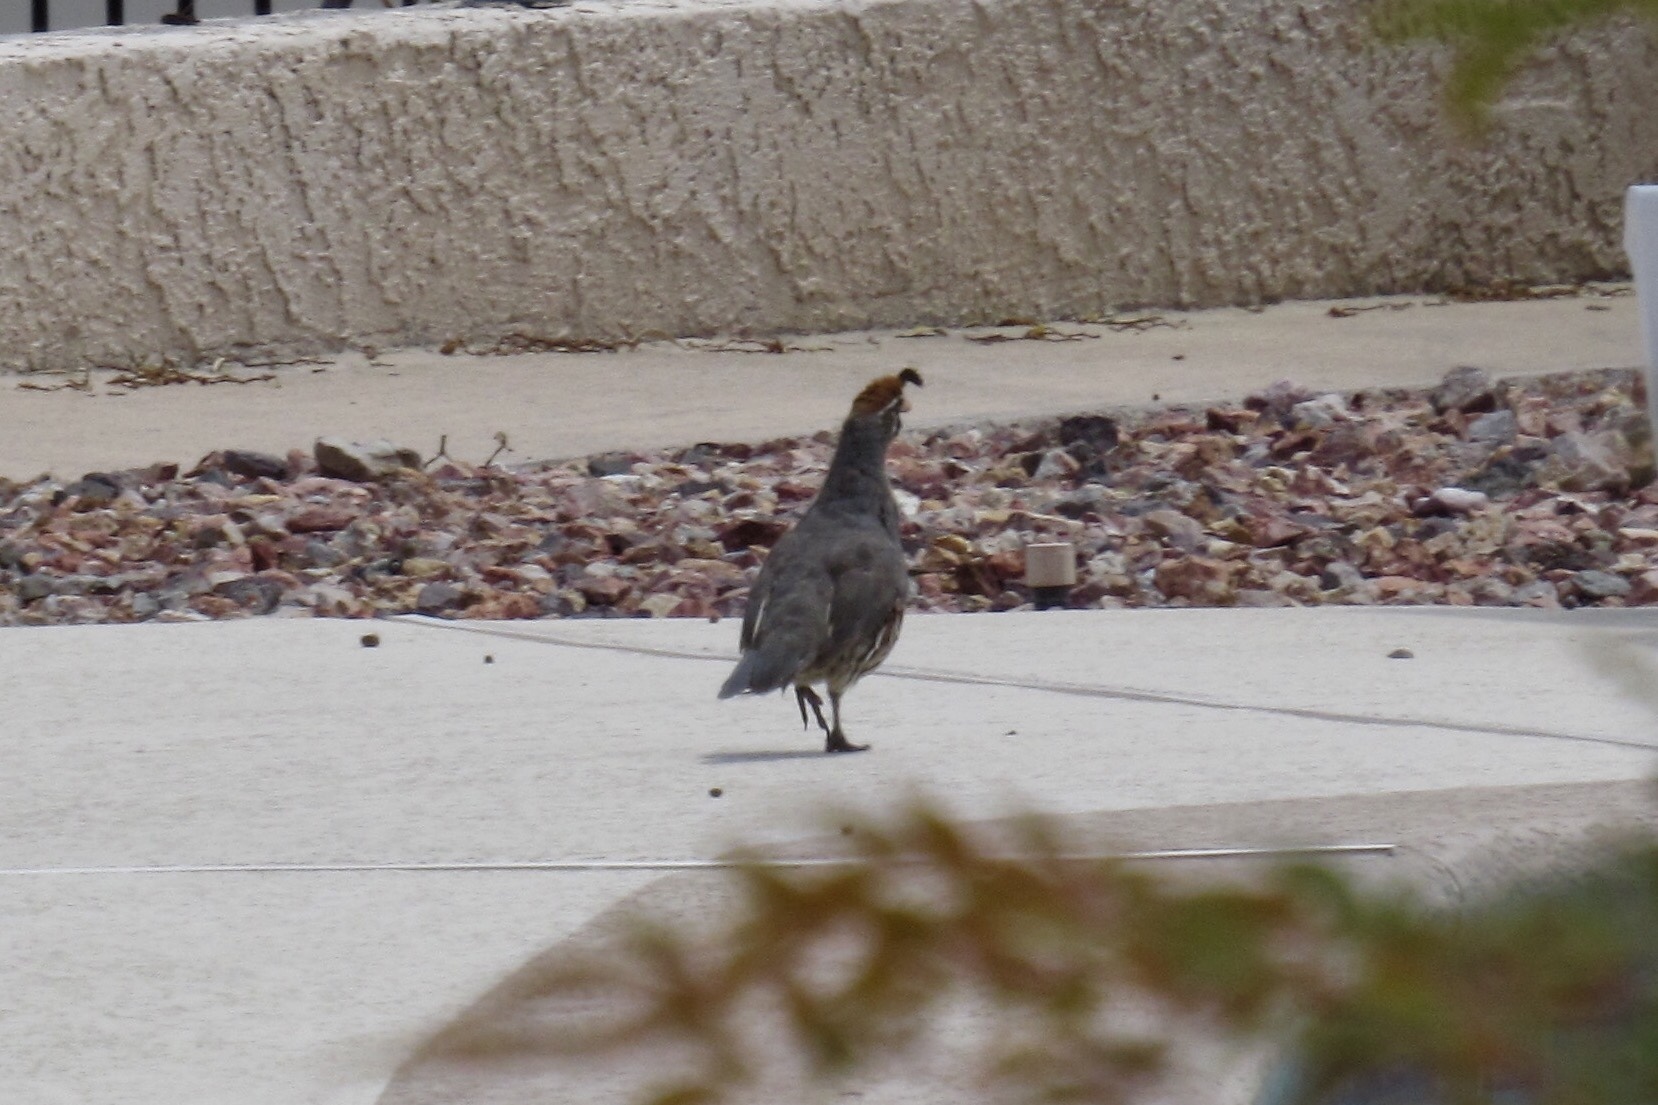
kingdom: Animalia
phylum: Chordata
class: Aves
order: Galliformes
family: Odontophoridae
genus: Callipepla
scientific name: Callipepla gambelii
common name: Gambel's quail
